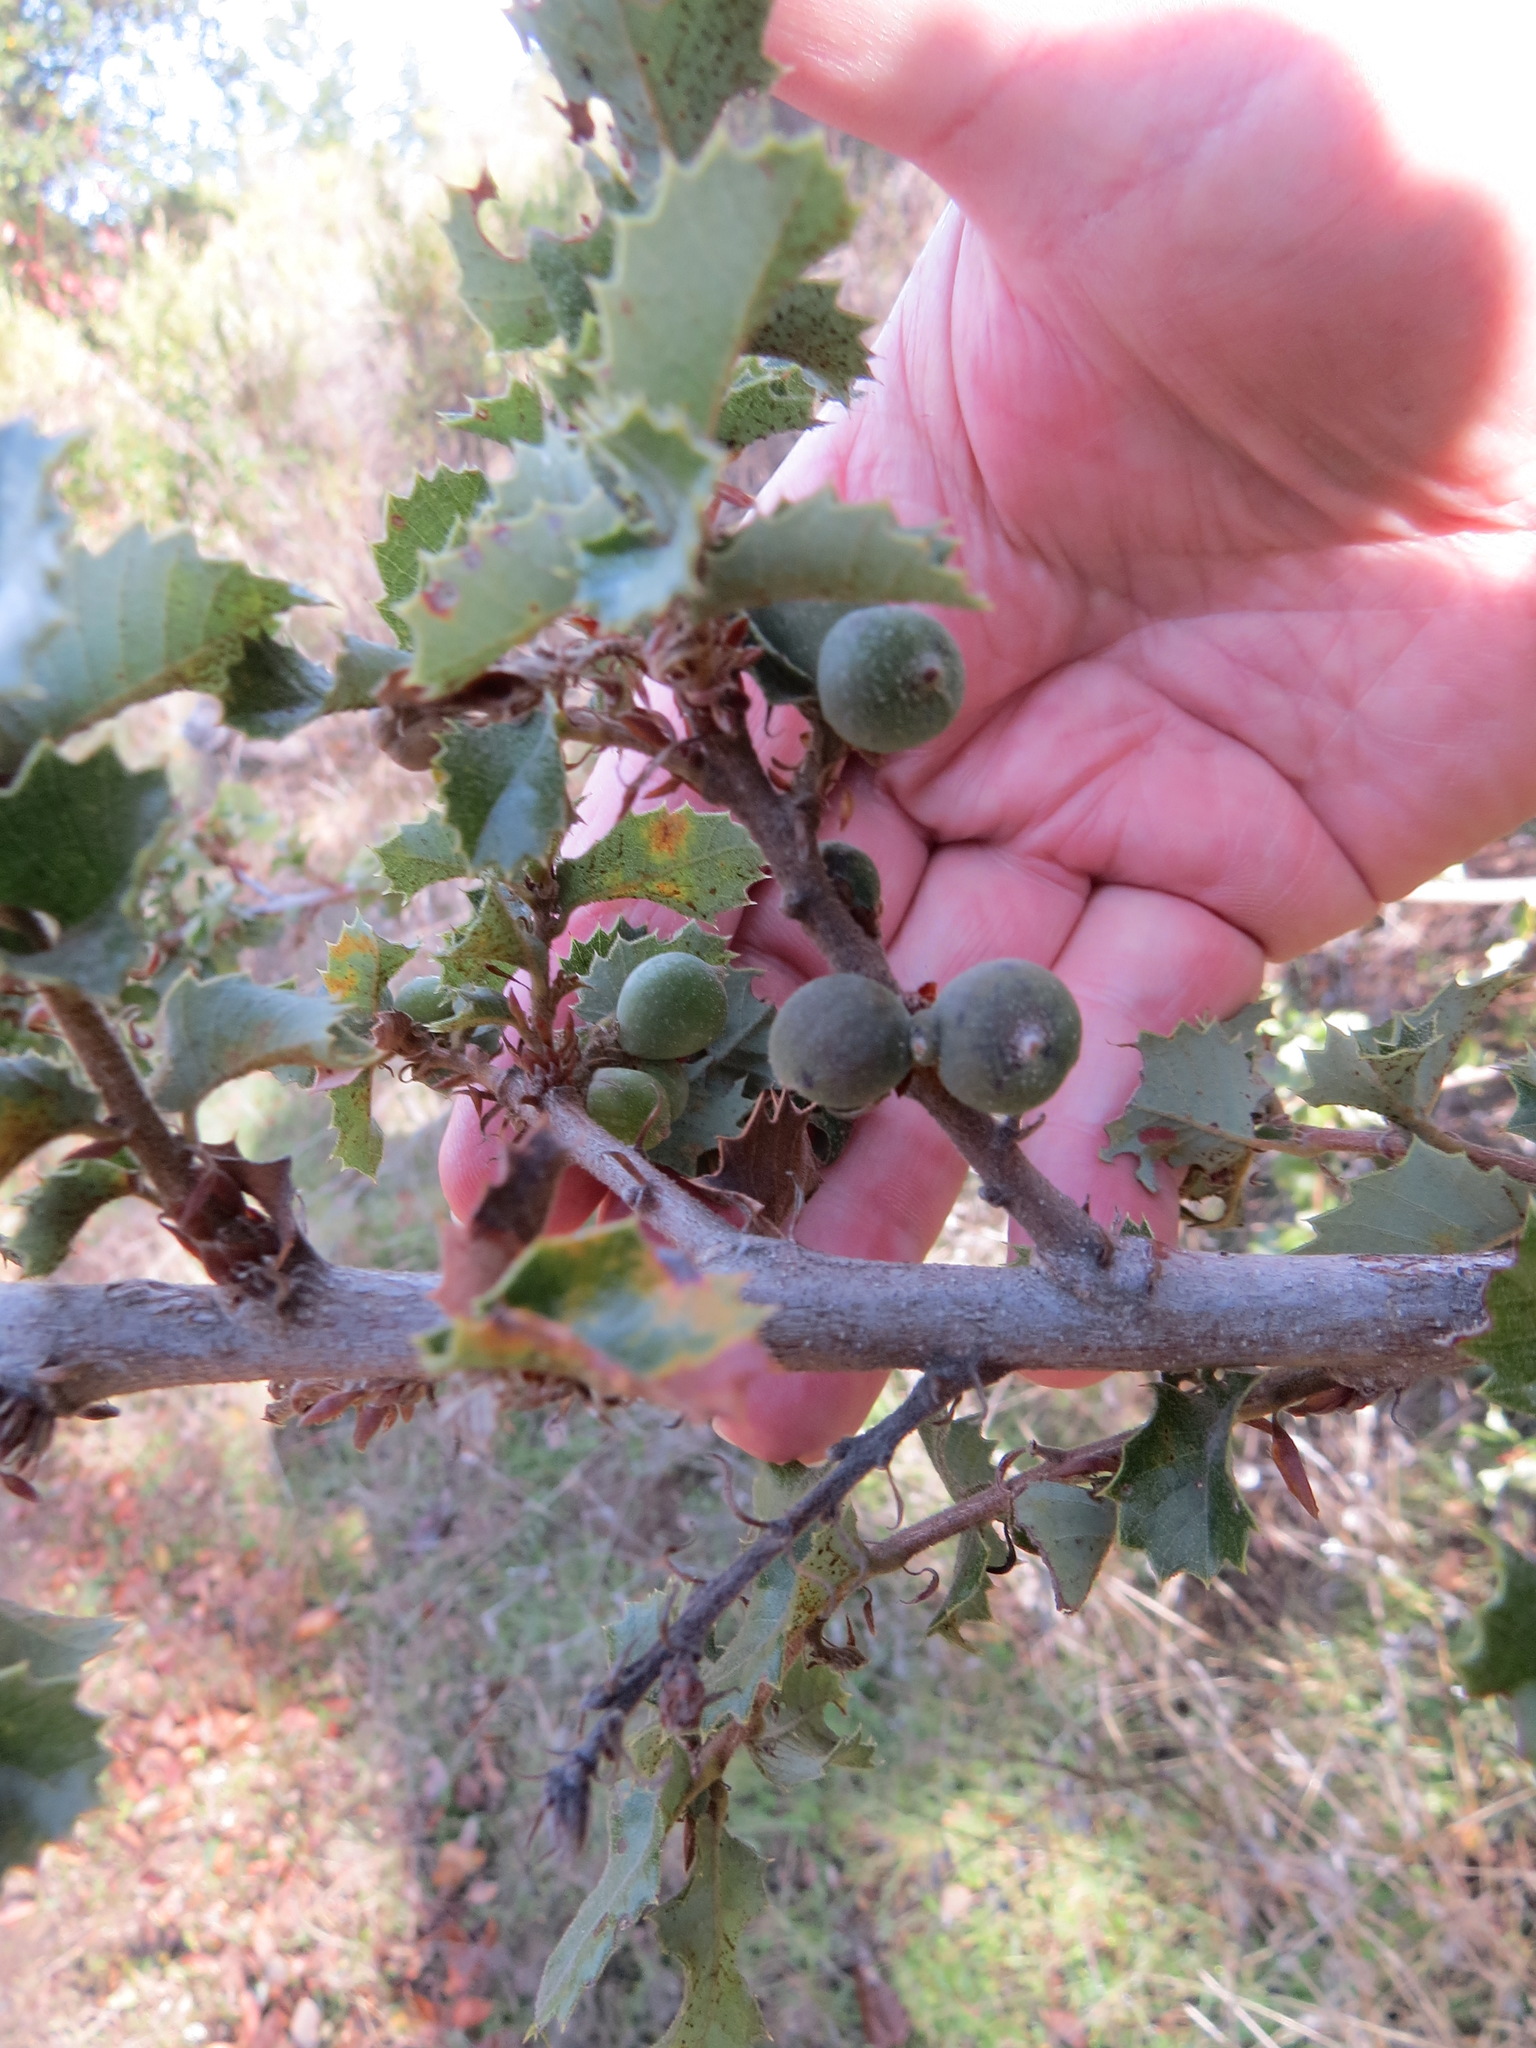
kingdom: Animalia
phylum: Arthropoda
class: Insecta
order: Hymenoptera
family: Cynipidae
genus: Heteroecus
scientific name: Heteroecus
